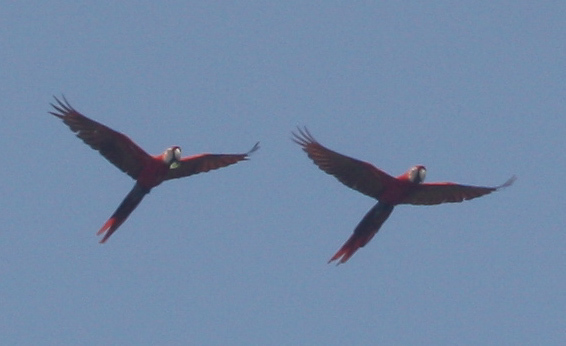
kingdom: Animalia
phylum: Chordata
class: Aves
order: Psittaciformes
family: Psittacidae
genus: Ara
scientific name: Ara macao
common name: Scarlet macaw
